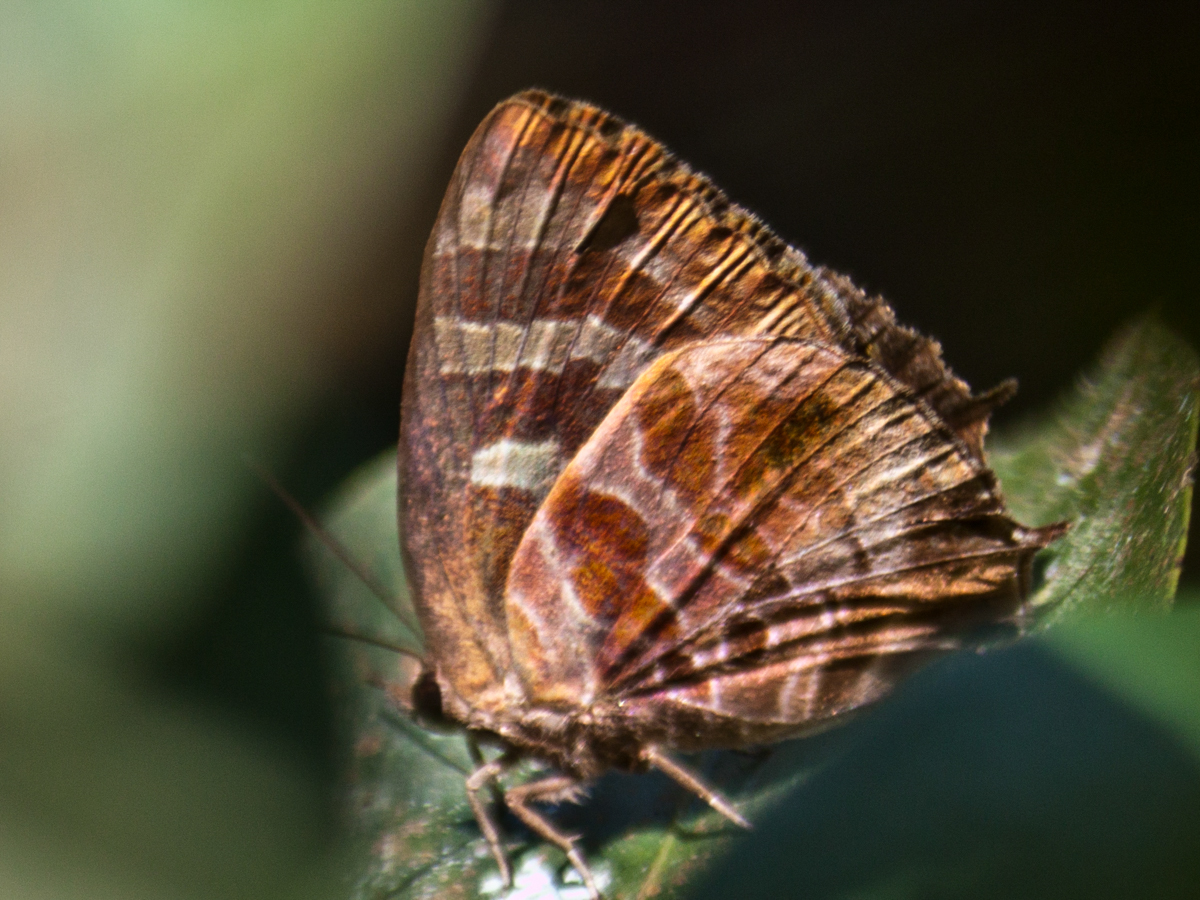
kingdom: Animalia
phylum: Arthropoda
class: Insecta
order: Lepidoptera
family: Lycaenidae
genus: Flos
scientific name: Flos
